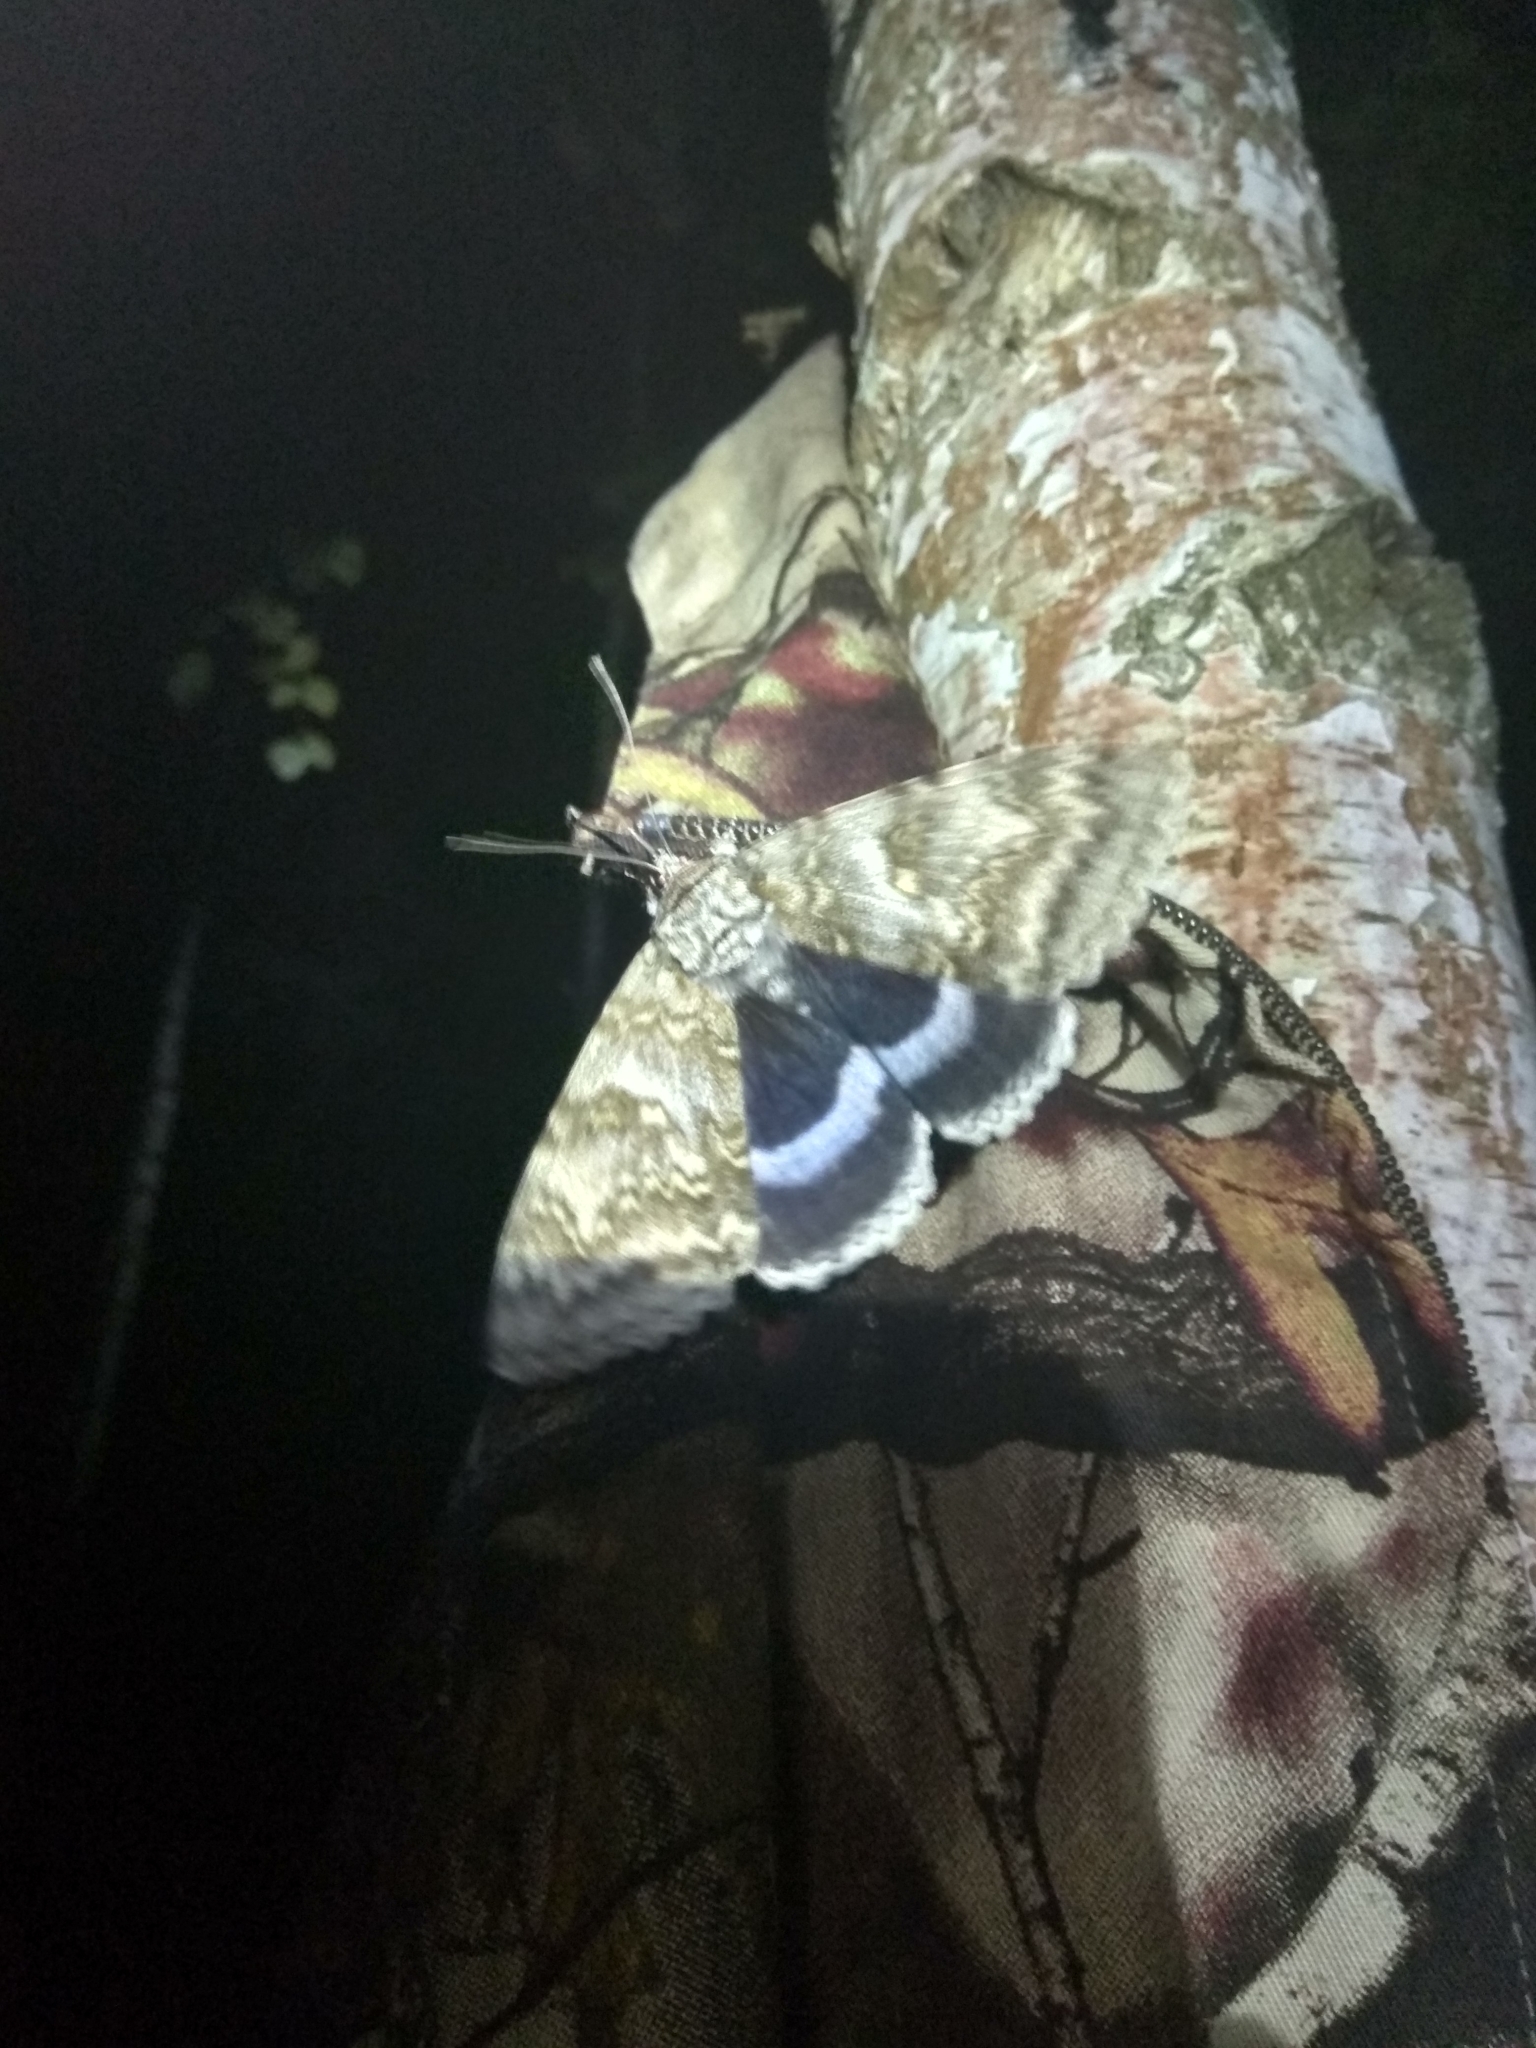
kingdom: Animalia
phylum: Arthropoda
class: Insecta
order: Lepidoptera
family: Erebidae
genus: Catocala
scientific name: Catocala fraxini
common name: Clifden nonpareil
